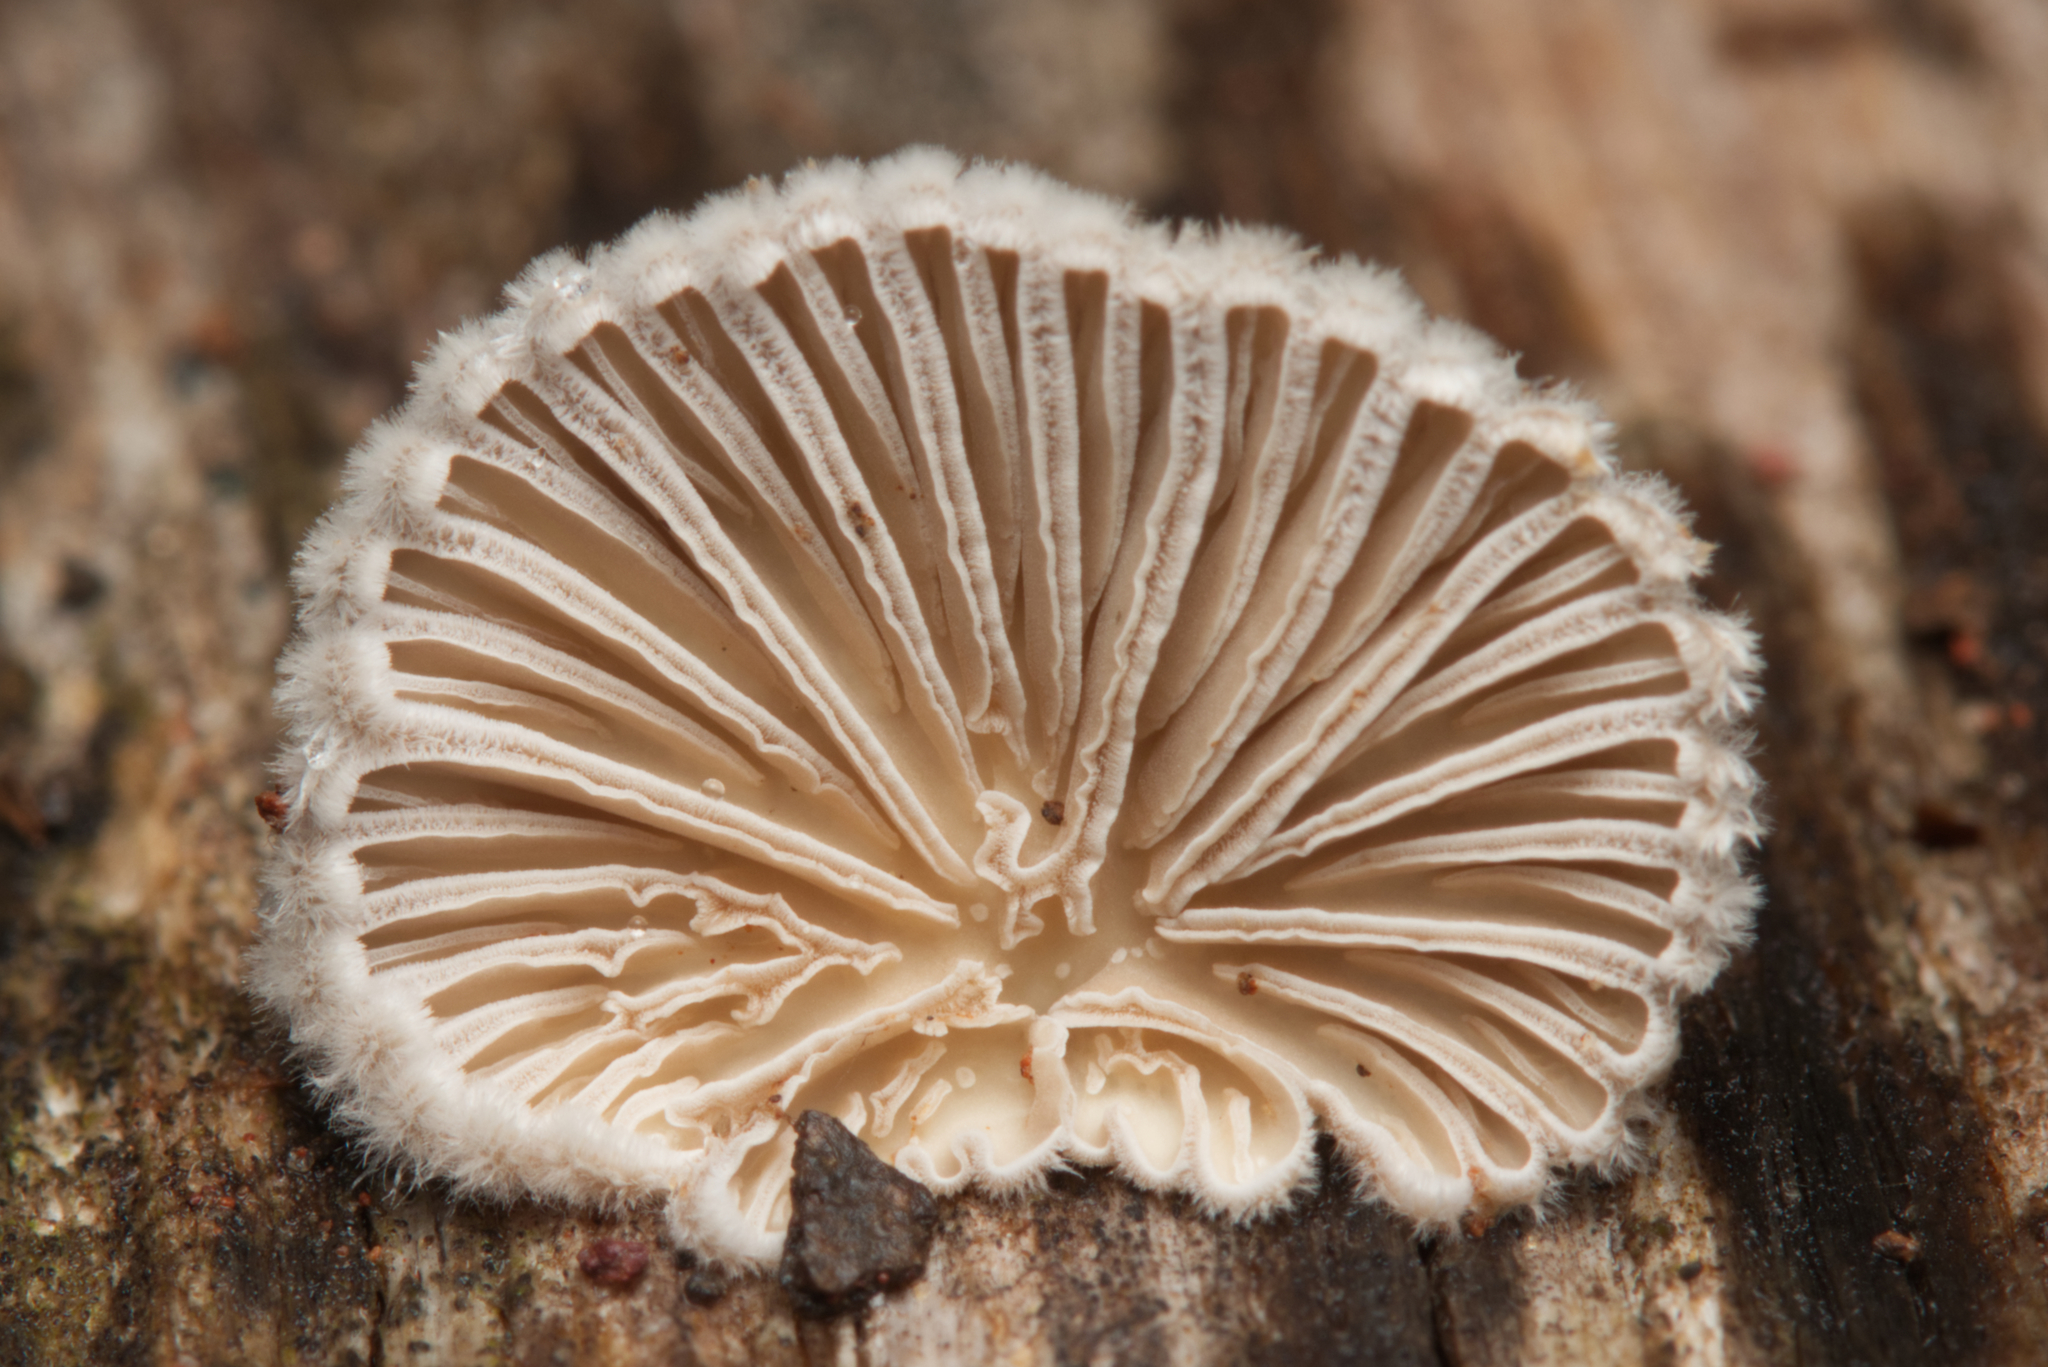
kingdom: Fungi
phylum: Basidiomycota
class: Agaricomycetes
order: Agaricales
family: Schizophyllaceae
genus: Schizophyllum
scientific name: Schizophyllum commune
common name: Common porecrust
